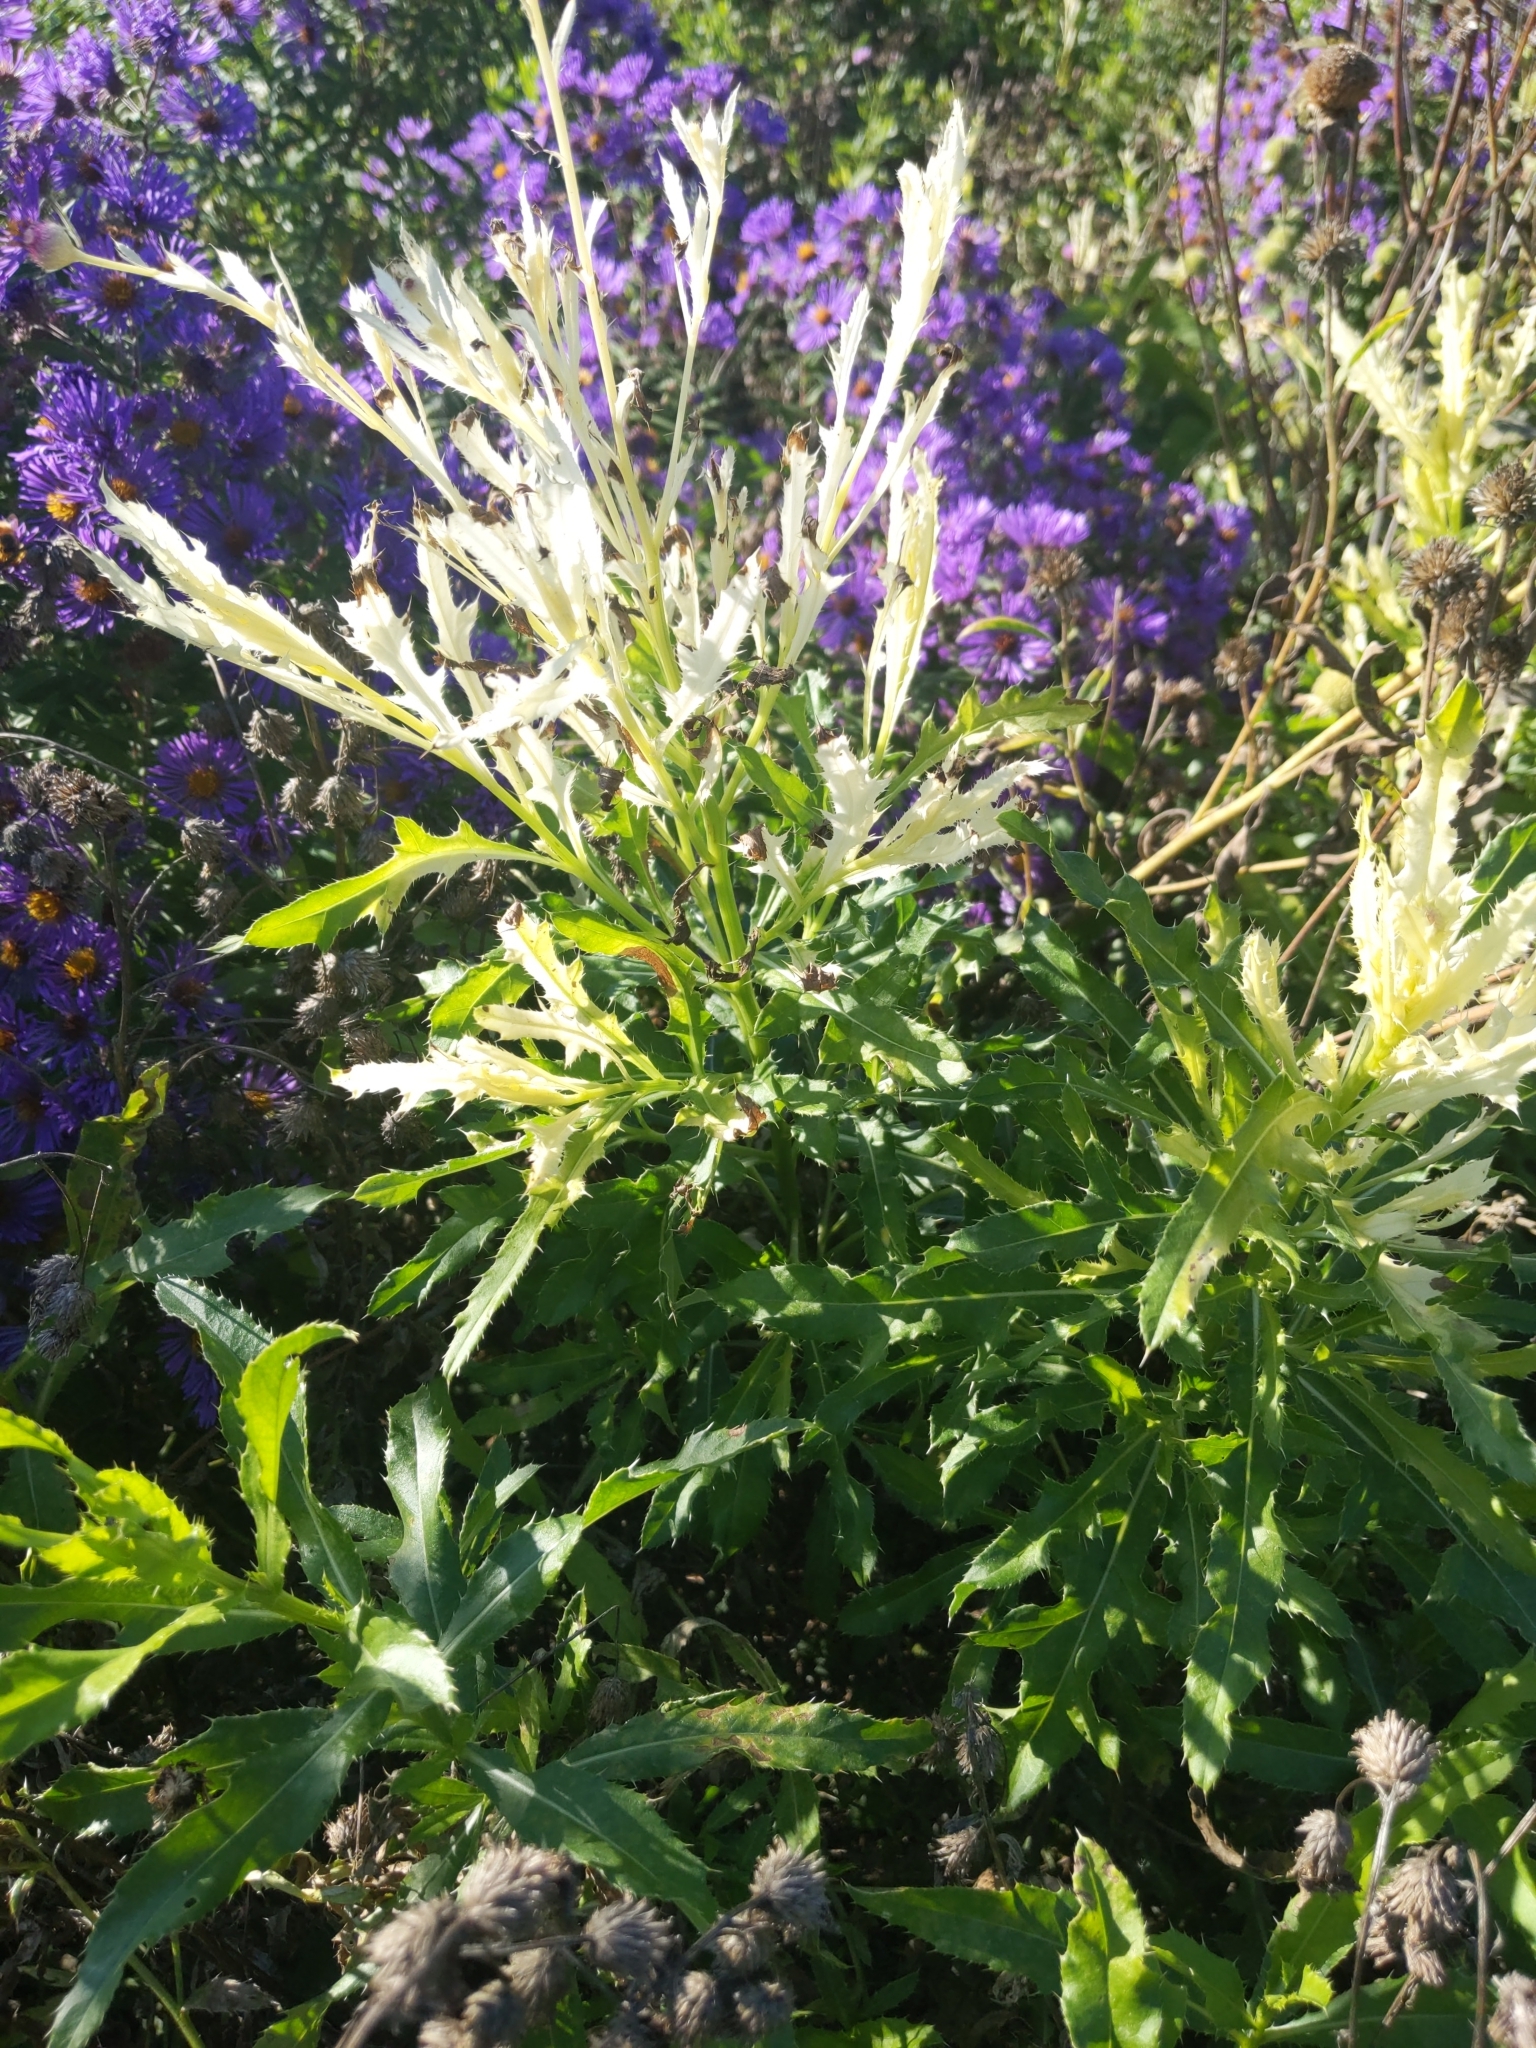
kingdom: Bacteria
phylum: Proteobacteria
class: Gammaproteobacteria
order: Pseudomonadales
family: Pseudomonadaceae
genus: Pseudomonas
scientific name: Pseudomonas syringae
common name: Bacterial speck
